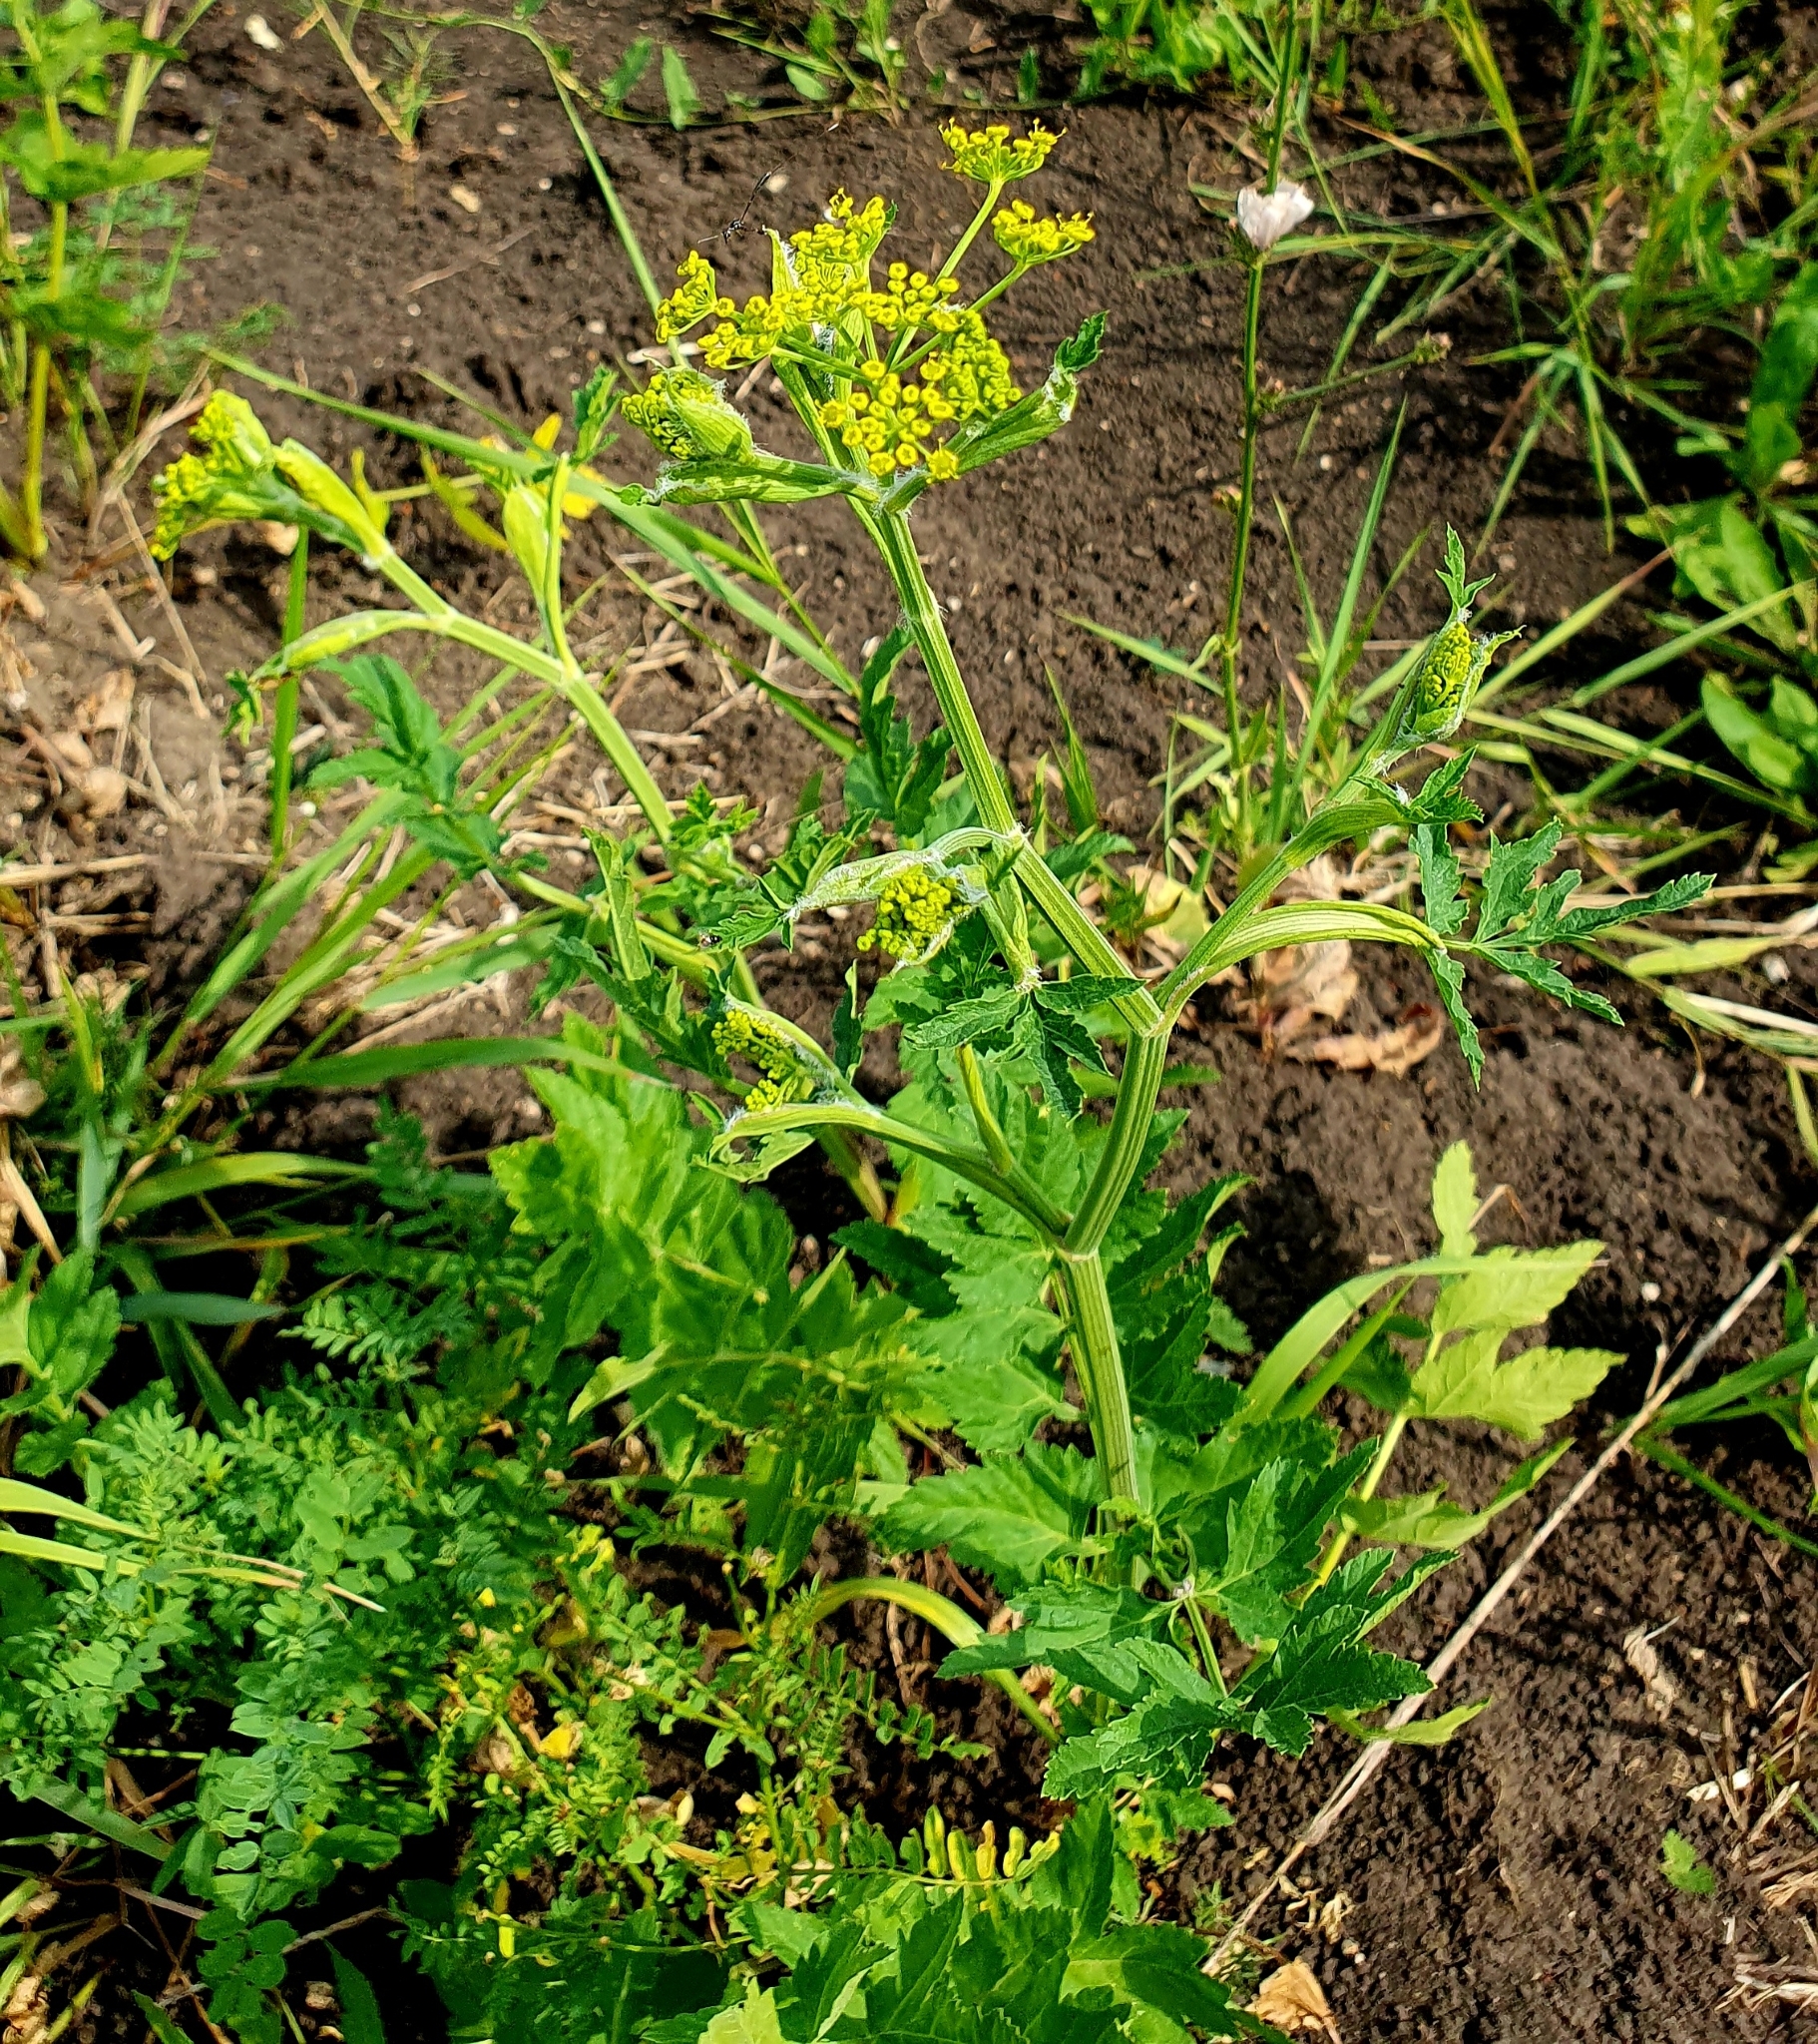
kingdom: Plantae
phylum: Tracheophyta
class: Magnoliopsida
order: Apiales
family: Apiaceae
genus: Pastinaca
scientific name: Pastinaca sativa
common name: Wild parsnip
